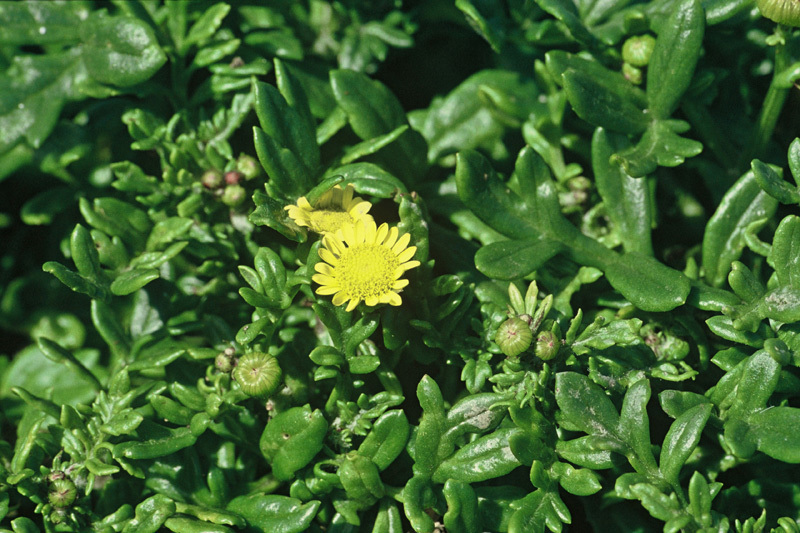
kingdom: Plantae
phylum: Tracheophyta
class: Magnoliopsida
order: Asterales
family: Asteraceae
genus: Senecio
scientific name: Senecio sterquilinus
